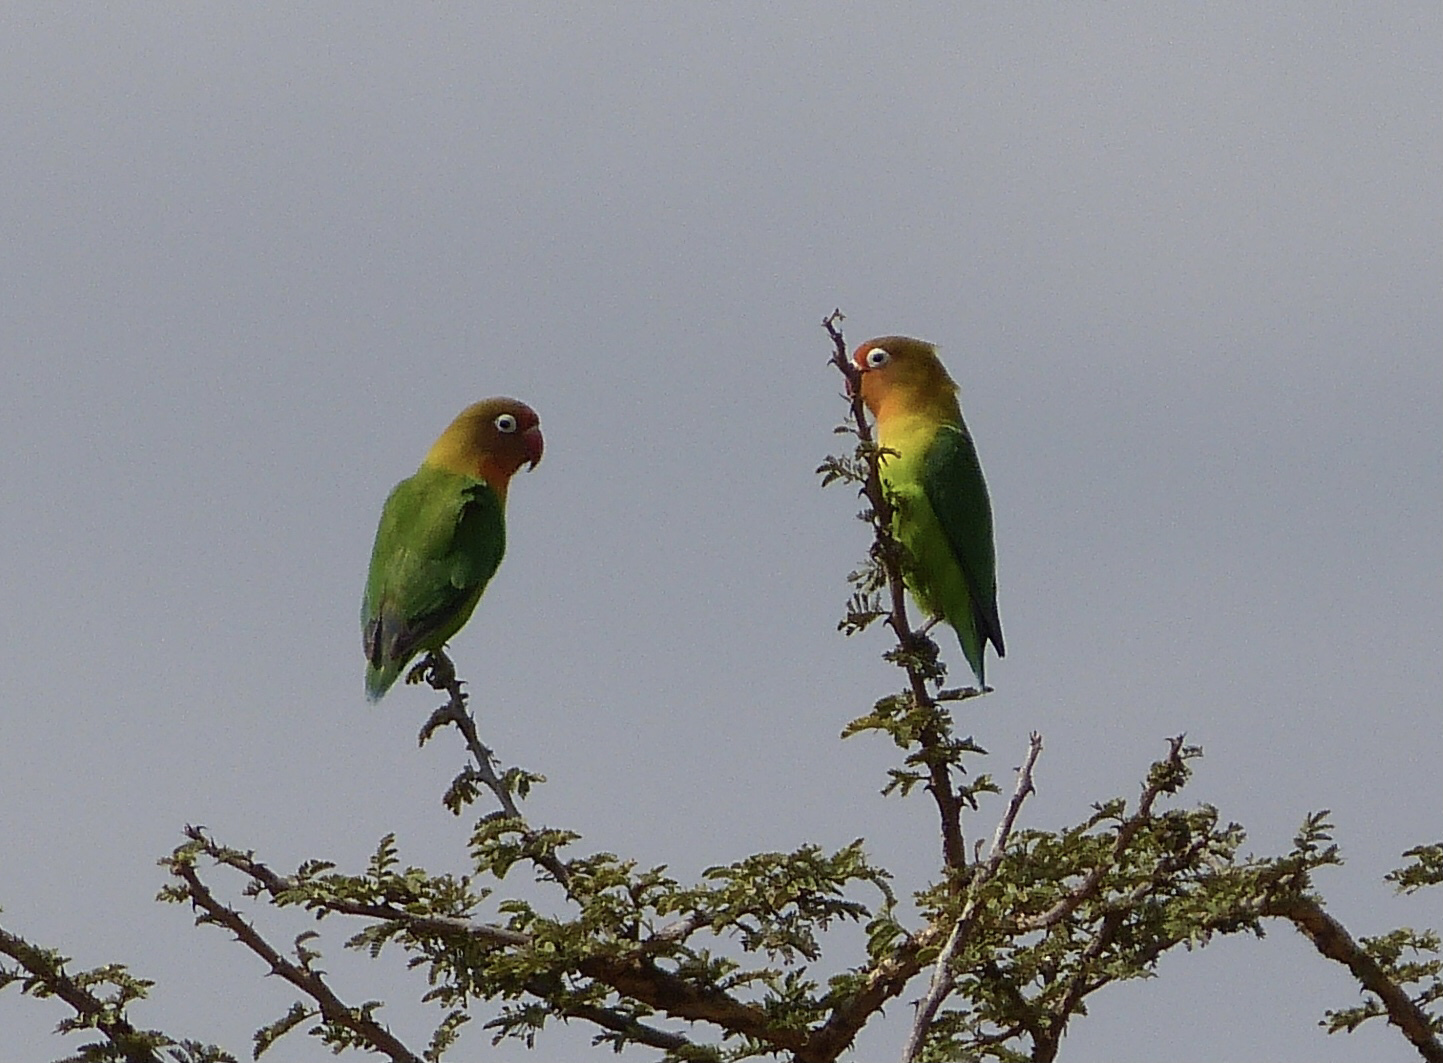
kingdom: Animalia
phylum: Chordata
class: Aves
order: Psittaciformes
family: Psittacidae
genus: Agapornis
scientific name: Agapornis fischeri
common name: Fischer's lovebird
